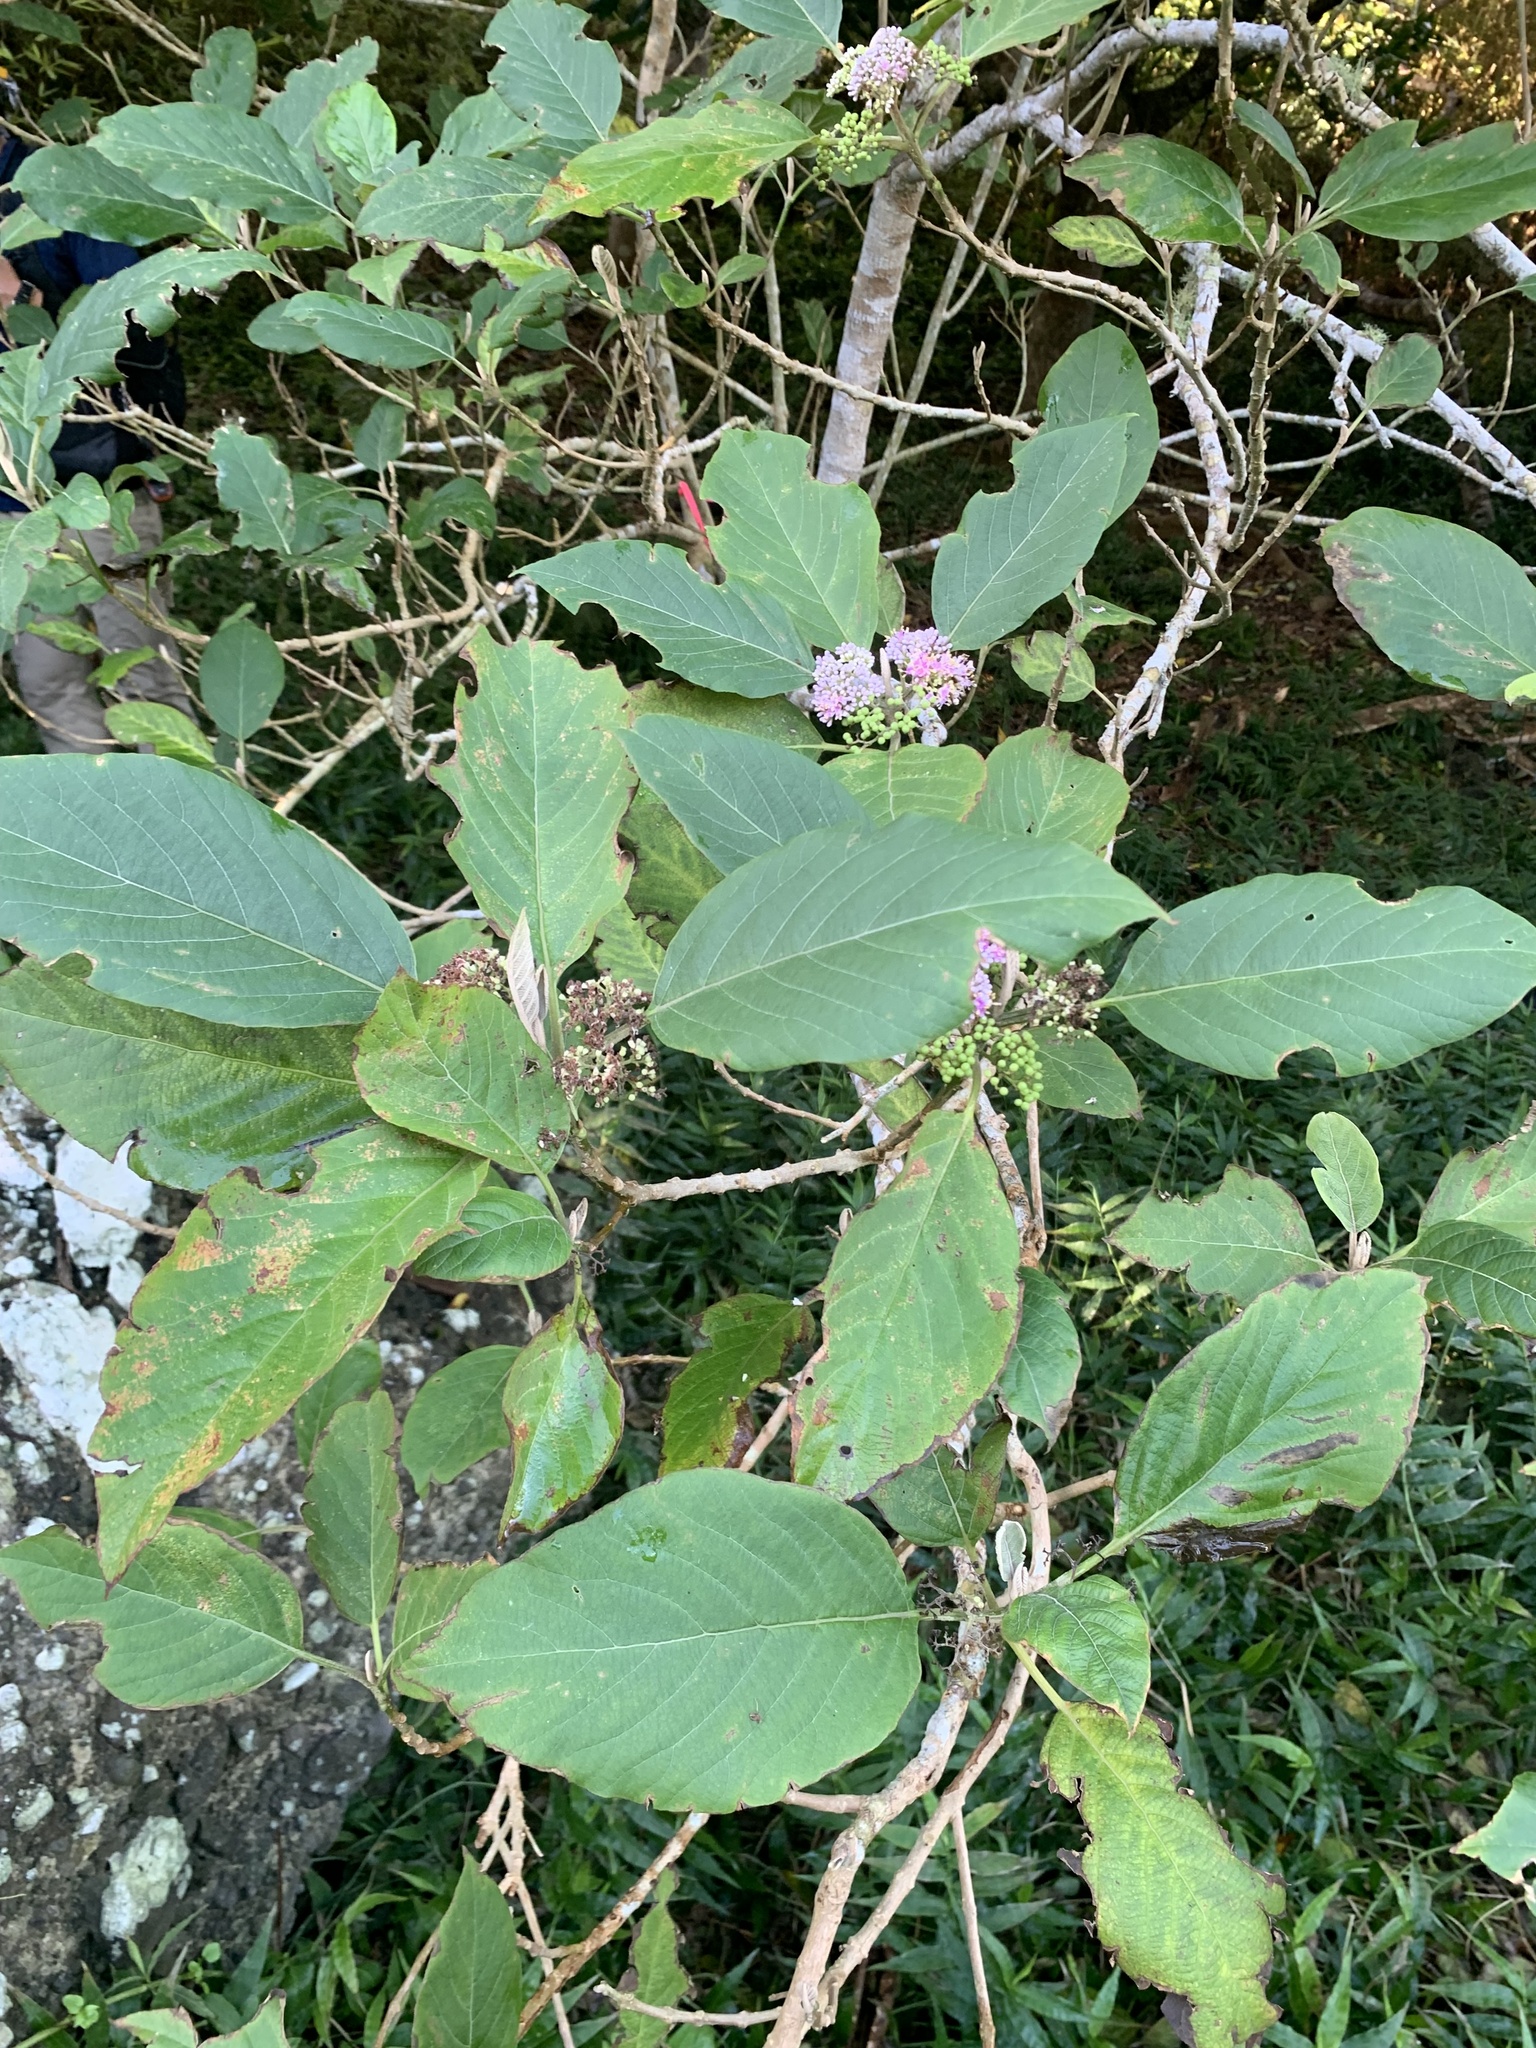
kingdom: Plantae
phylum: Tracheophyta
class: Magnoliopsida
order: Lamiales
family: Lamiaceae
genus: Callicarpa
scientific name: Callicarpa subpubescens
